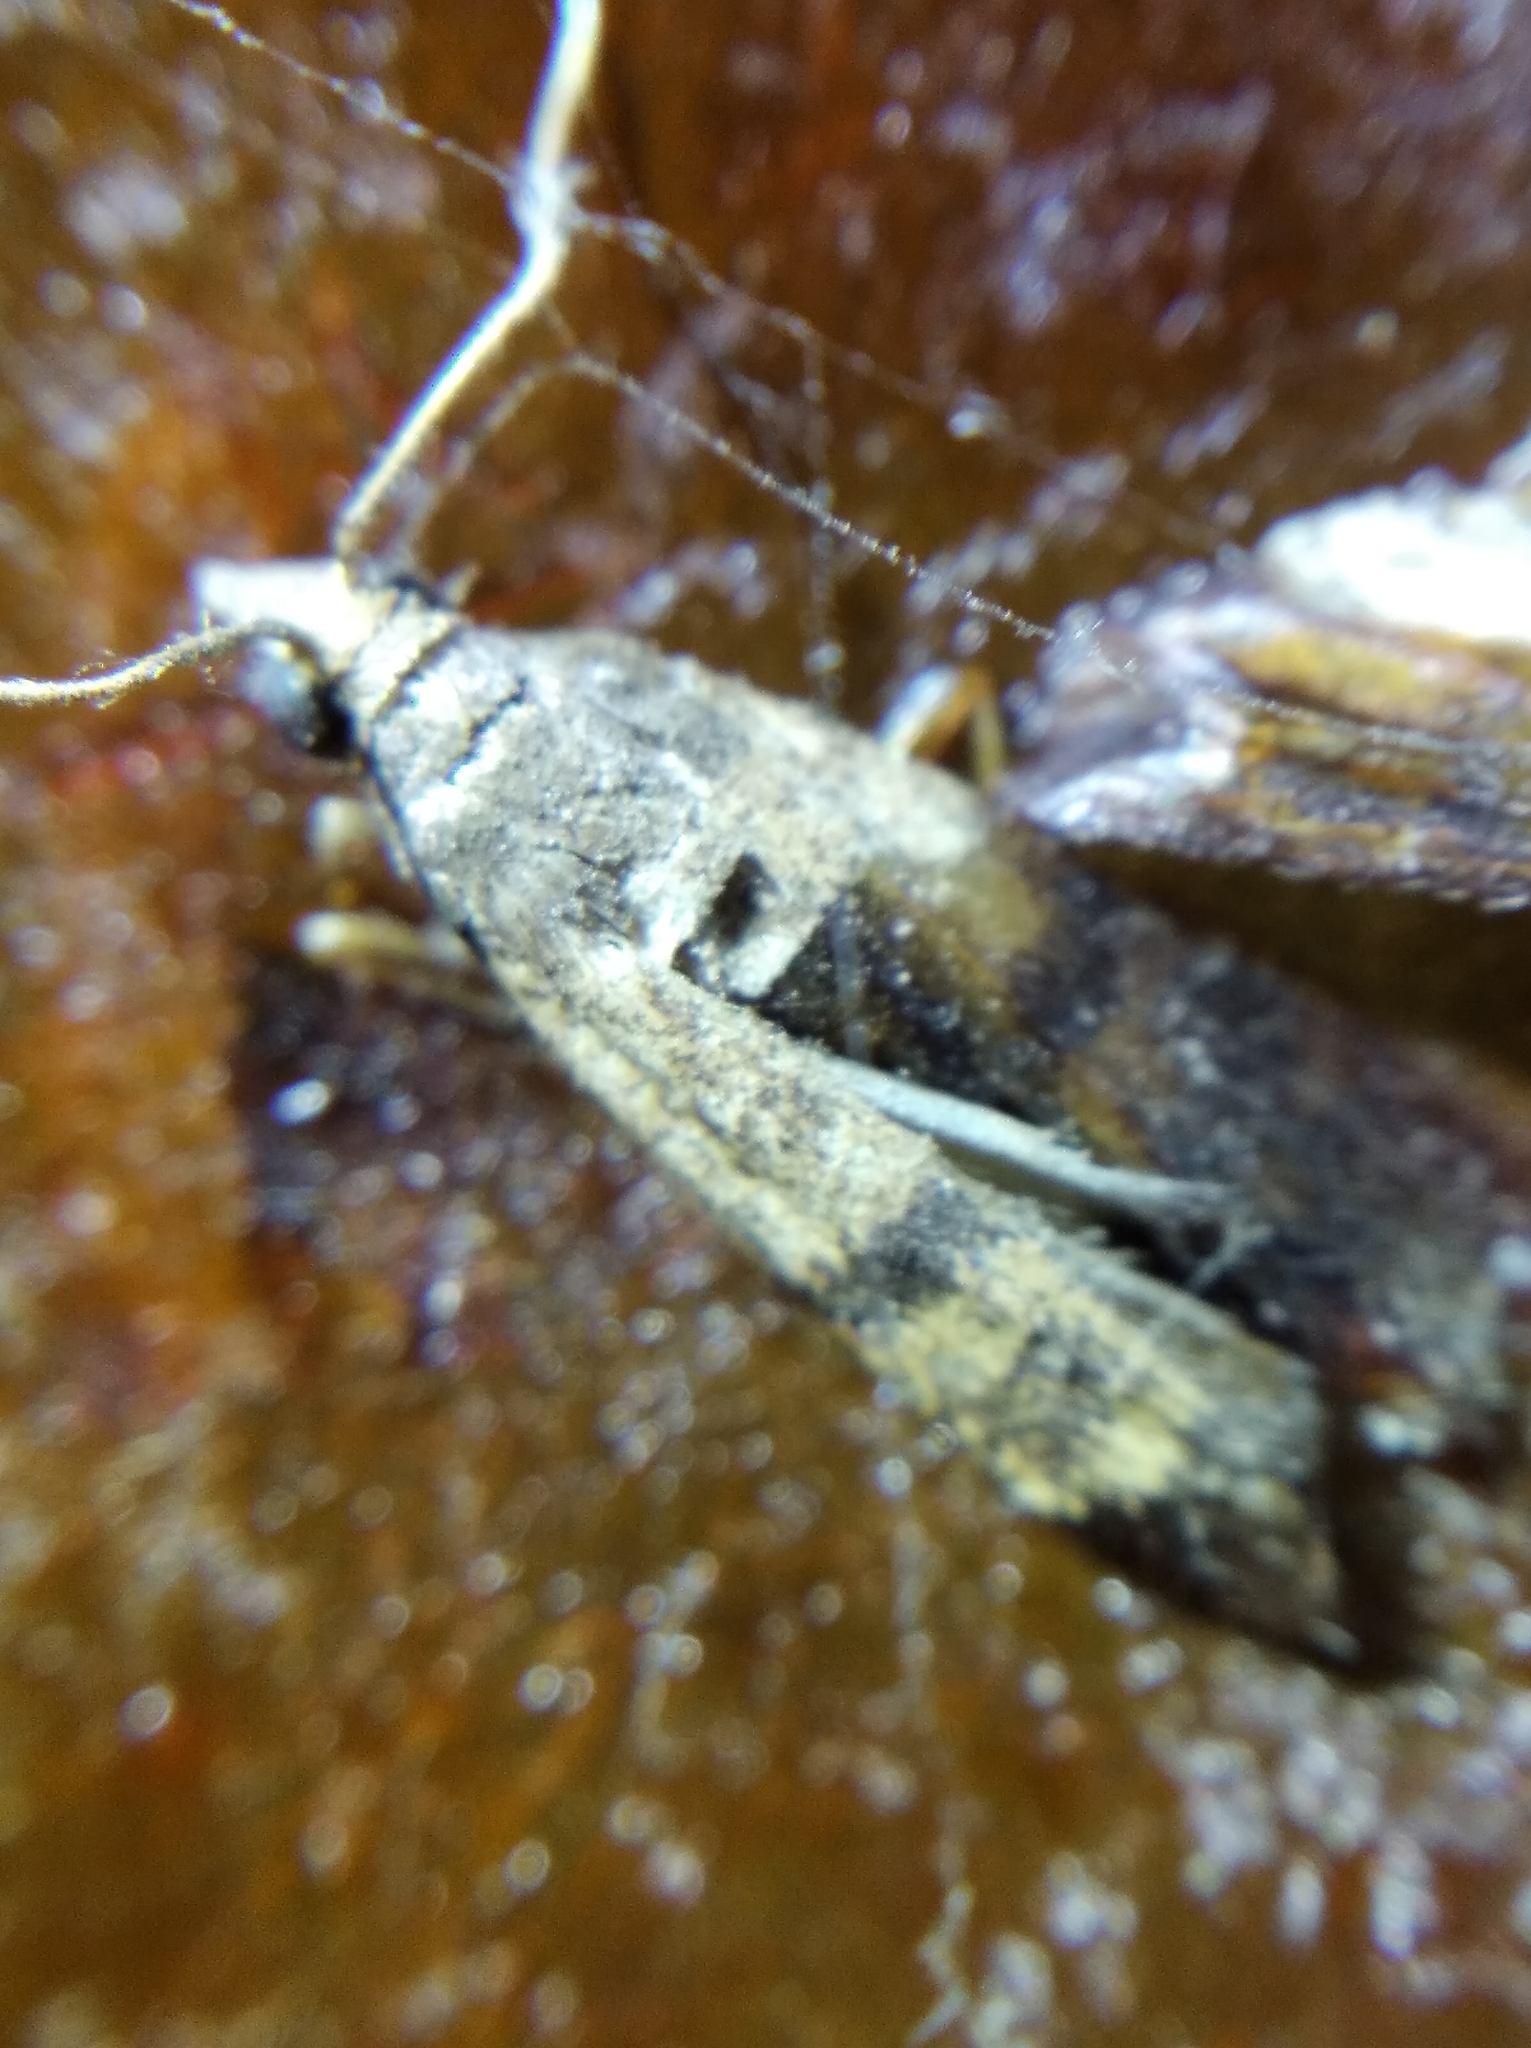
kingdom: Animalia
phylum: Arthropoda
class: Insecta
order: Lepidoptera
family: Pyralidae
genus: Plodia
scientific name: Plodia interpunctella
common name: Indian meal moth
